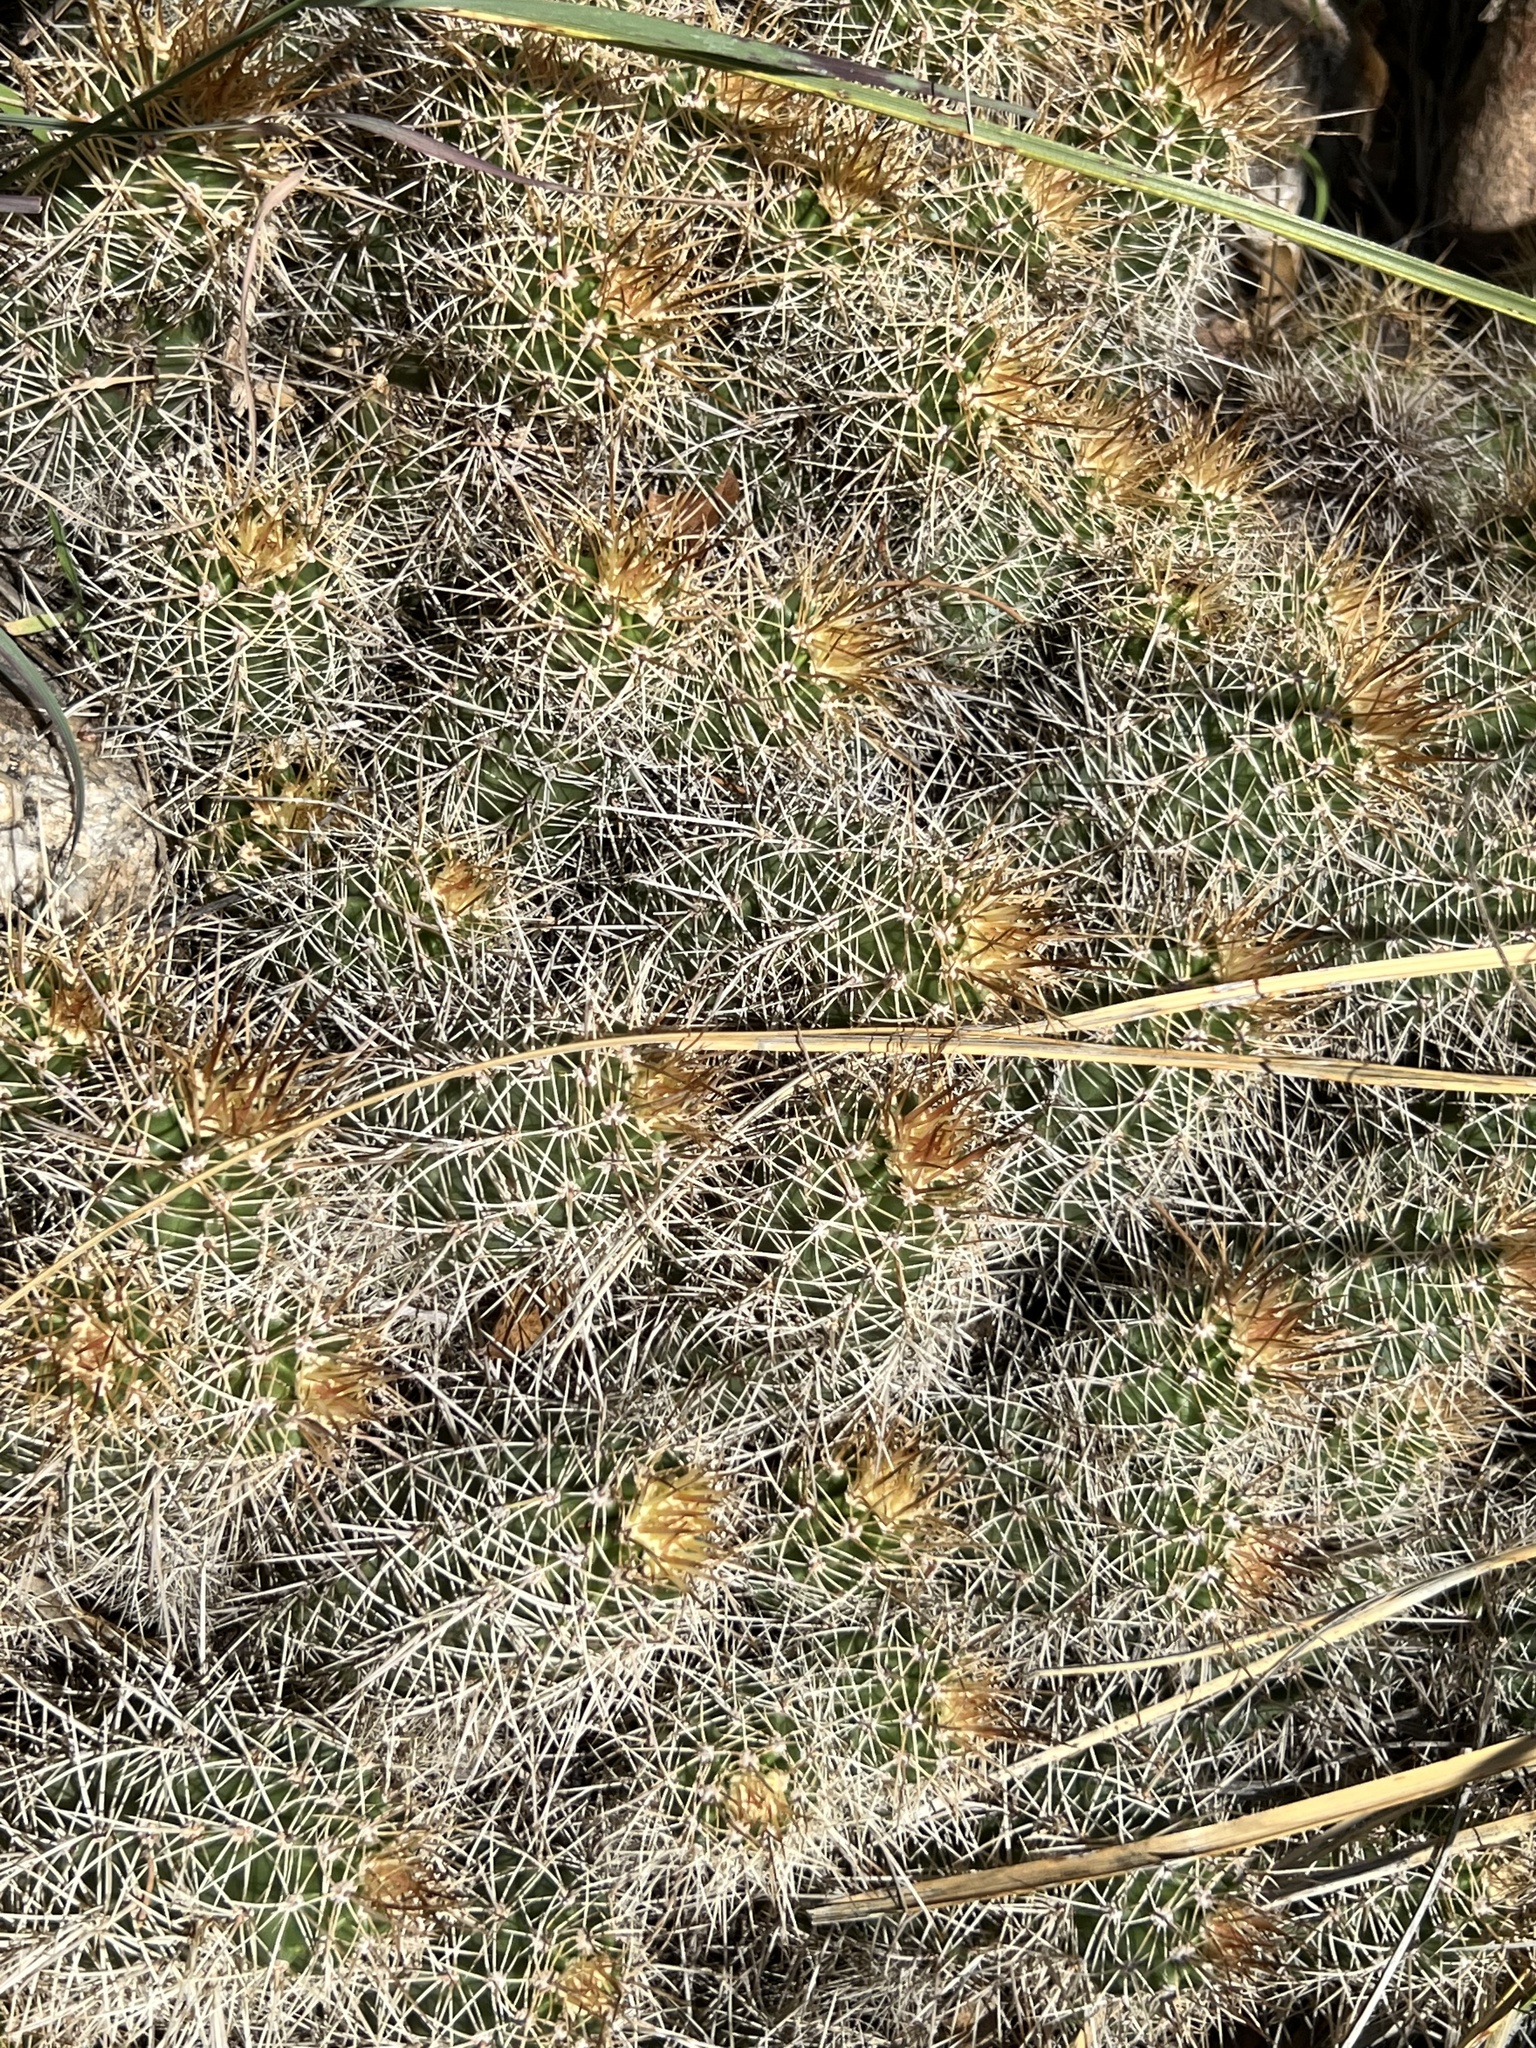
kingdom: Plantae
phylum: Tracheophyta
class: Magnoliopsida
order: Caryophyllales
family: Cactaceae
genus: Echinocereus
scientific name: Echinocereus bakeri
